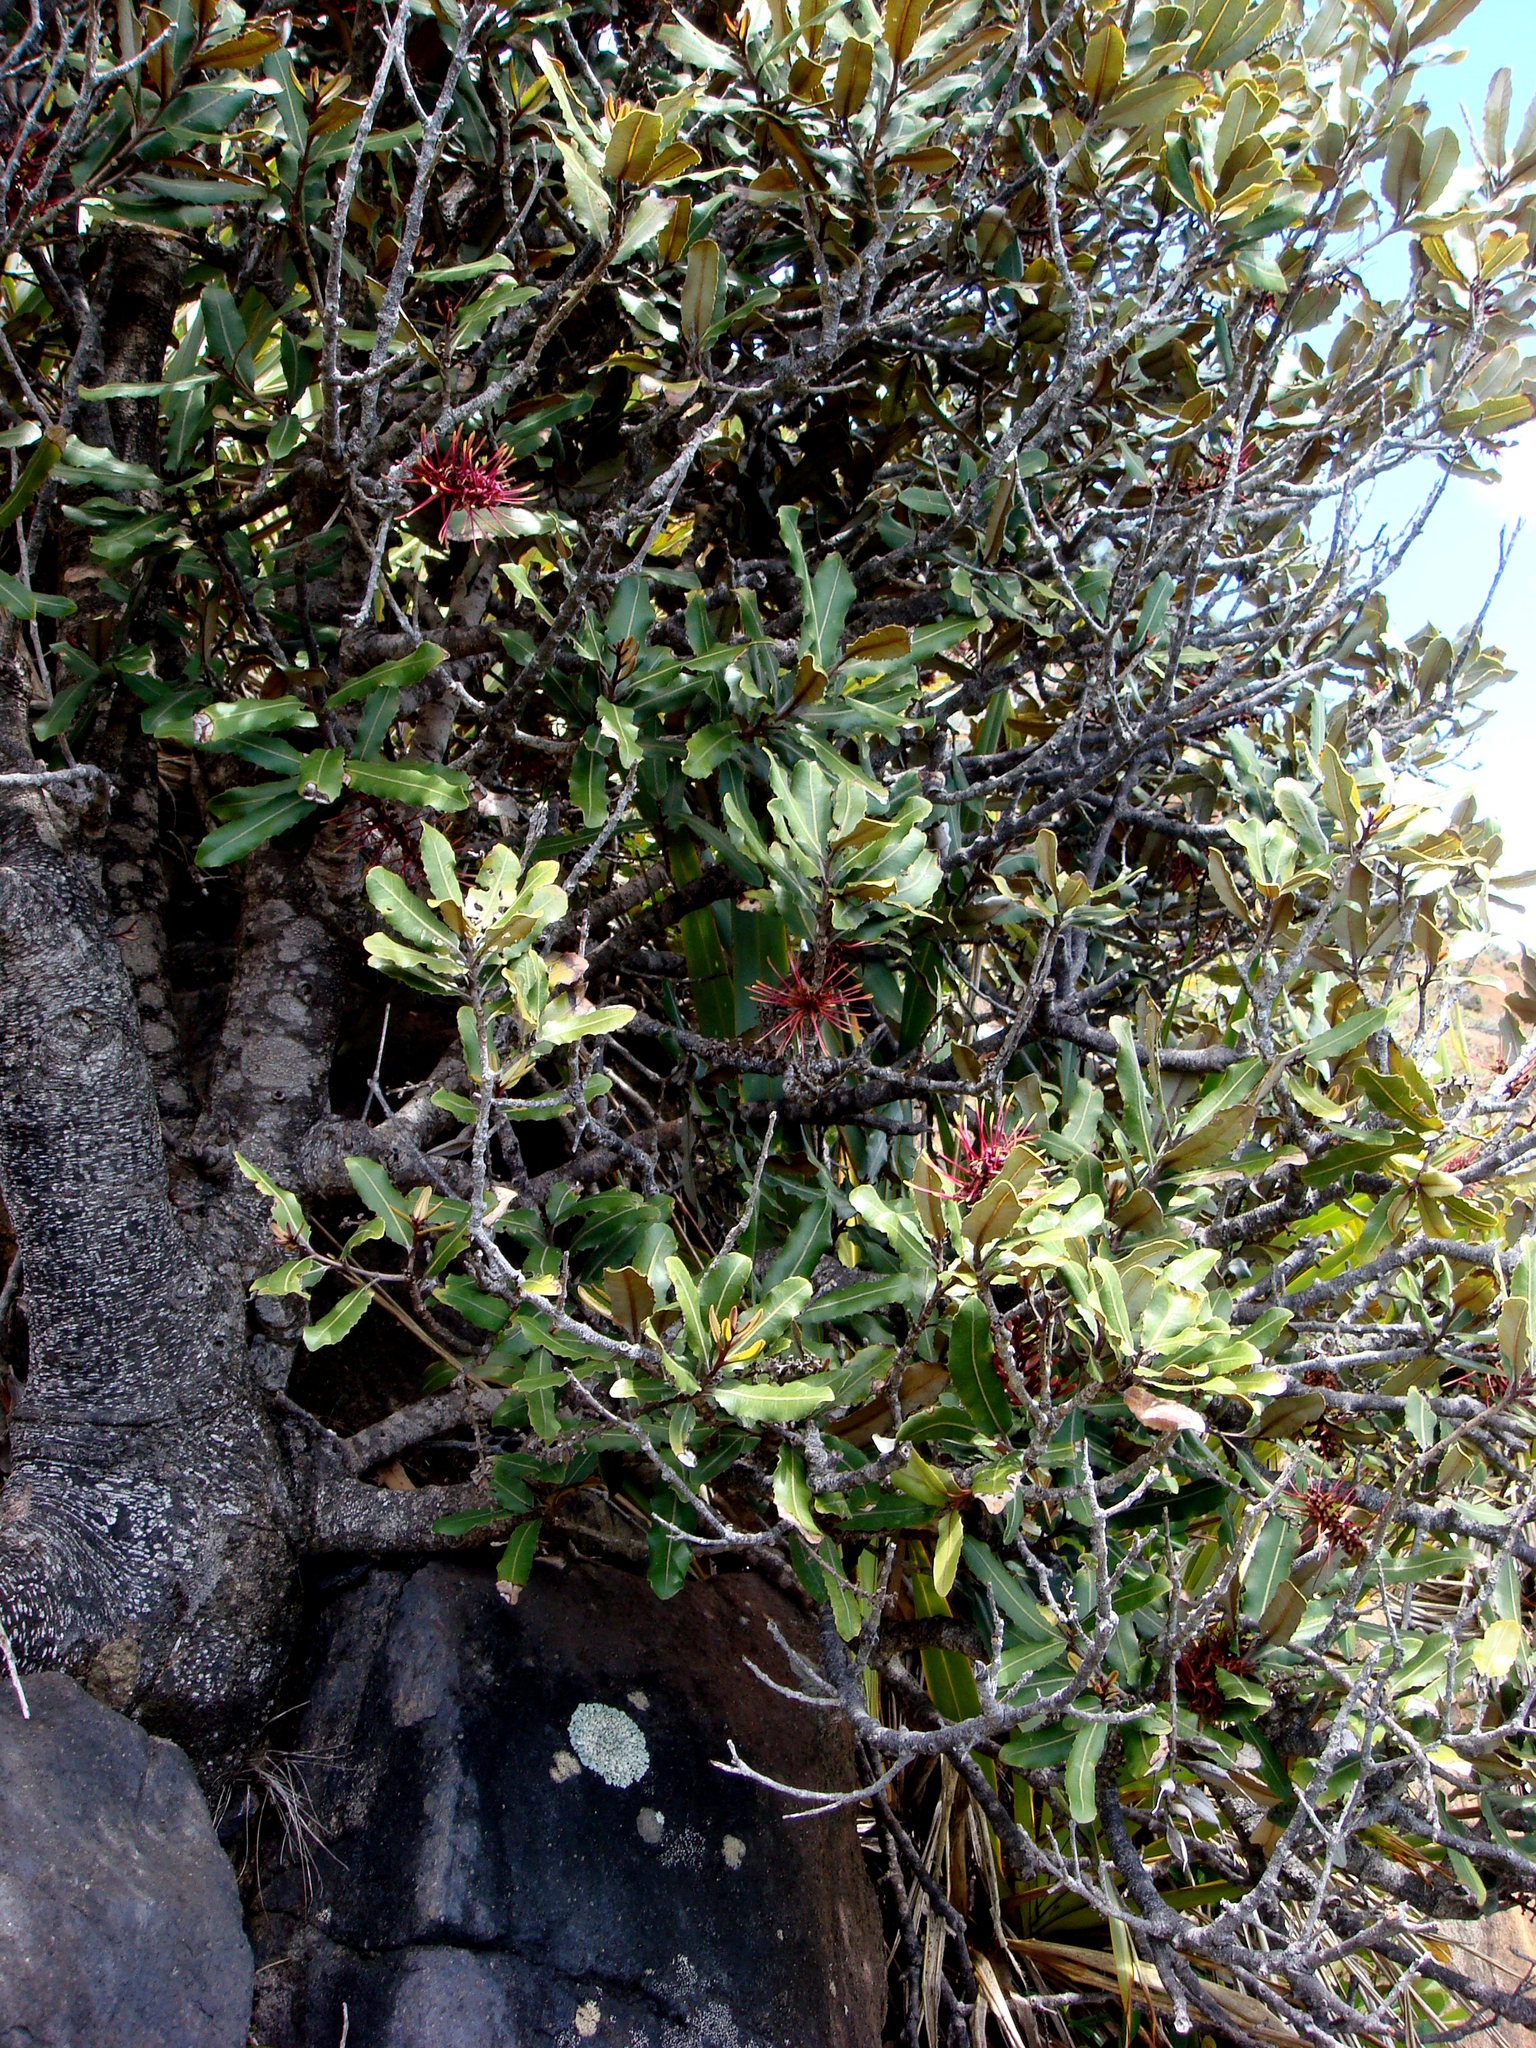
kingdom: Plantae
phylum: Tracheophyta
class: Magnoliopsida
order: Proteales
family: Proteaceae
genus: Knightia
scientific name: Knightia excelsa
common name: New zealand-honeysuckle
